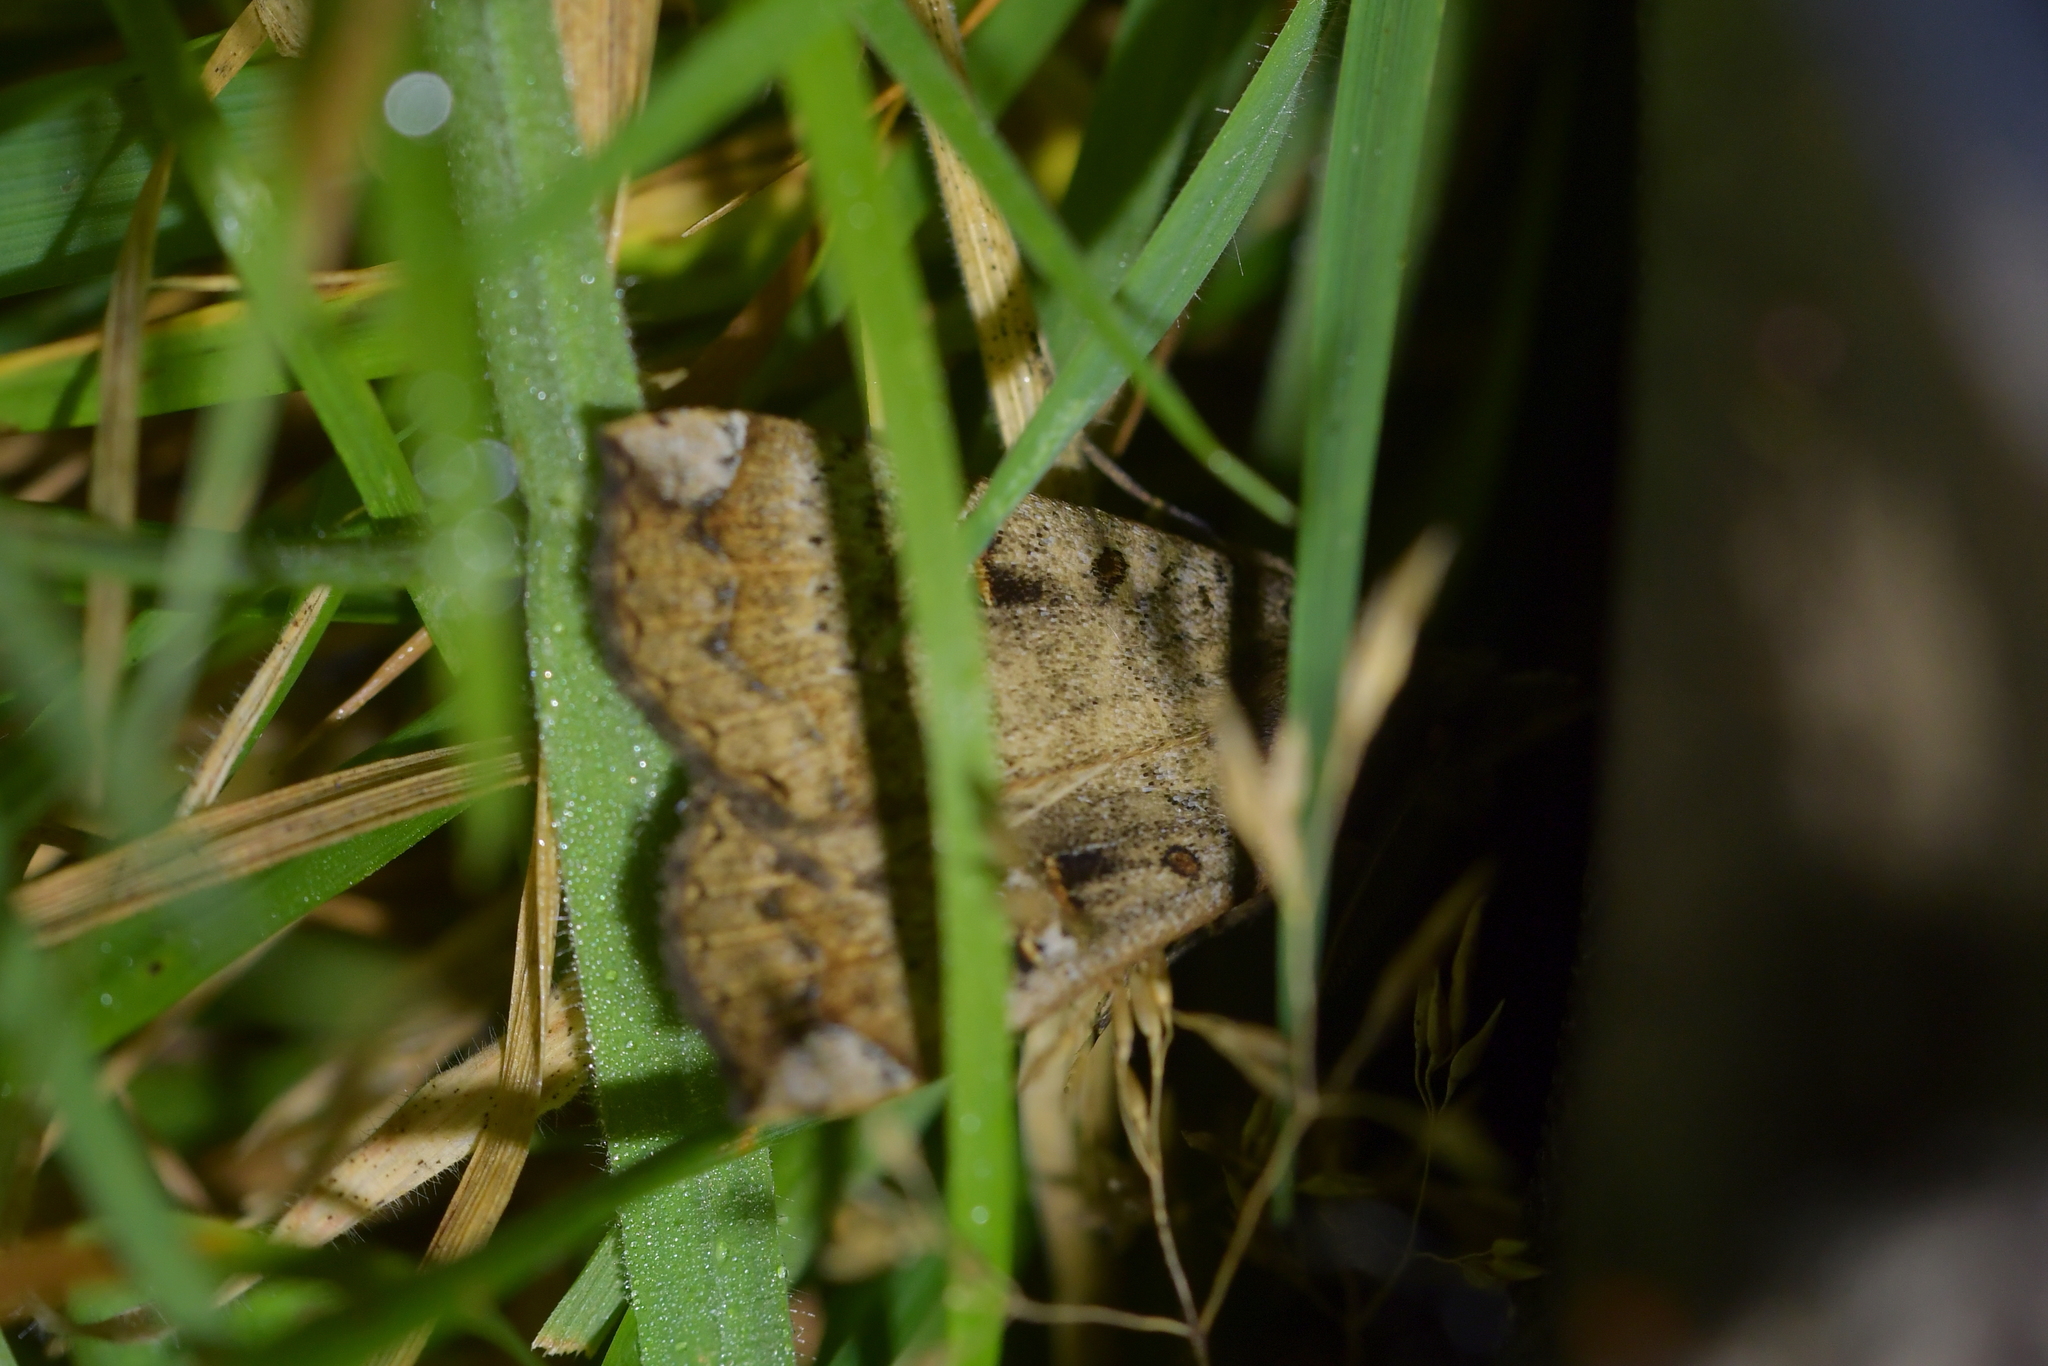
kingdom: Animalia
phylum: Arthropoda
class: Insecta
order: Lepidoptera
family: Erebidae
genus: Rhapsa
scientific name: Rhapsa scotosialis
